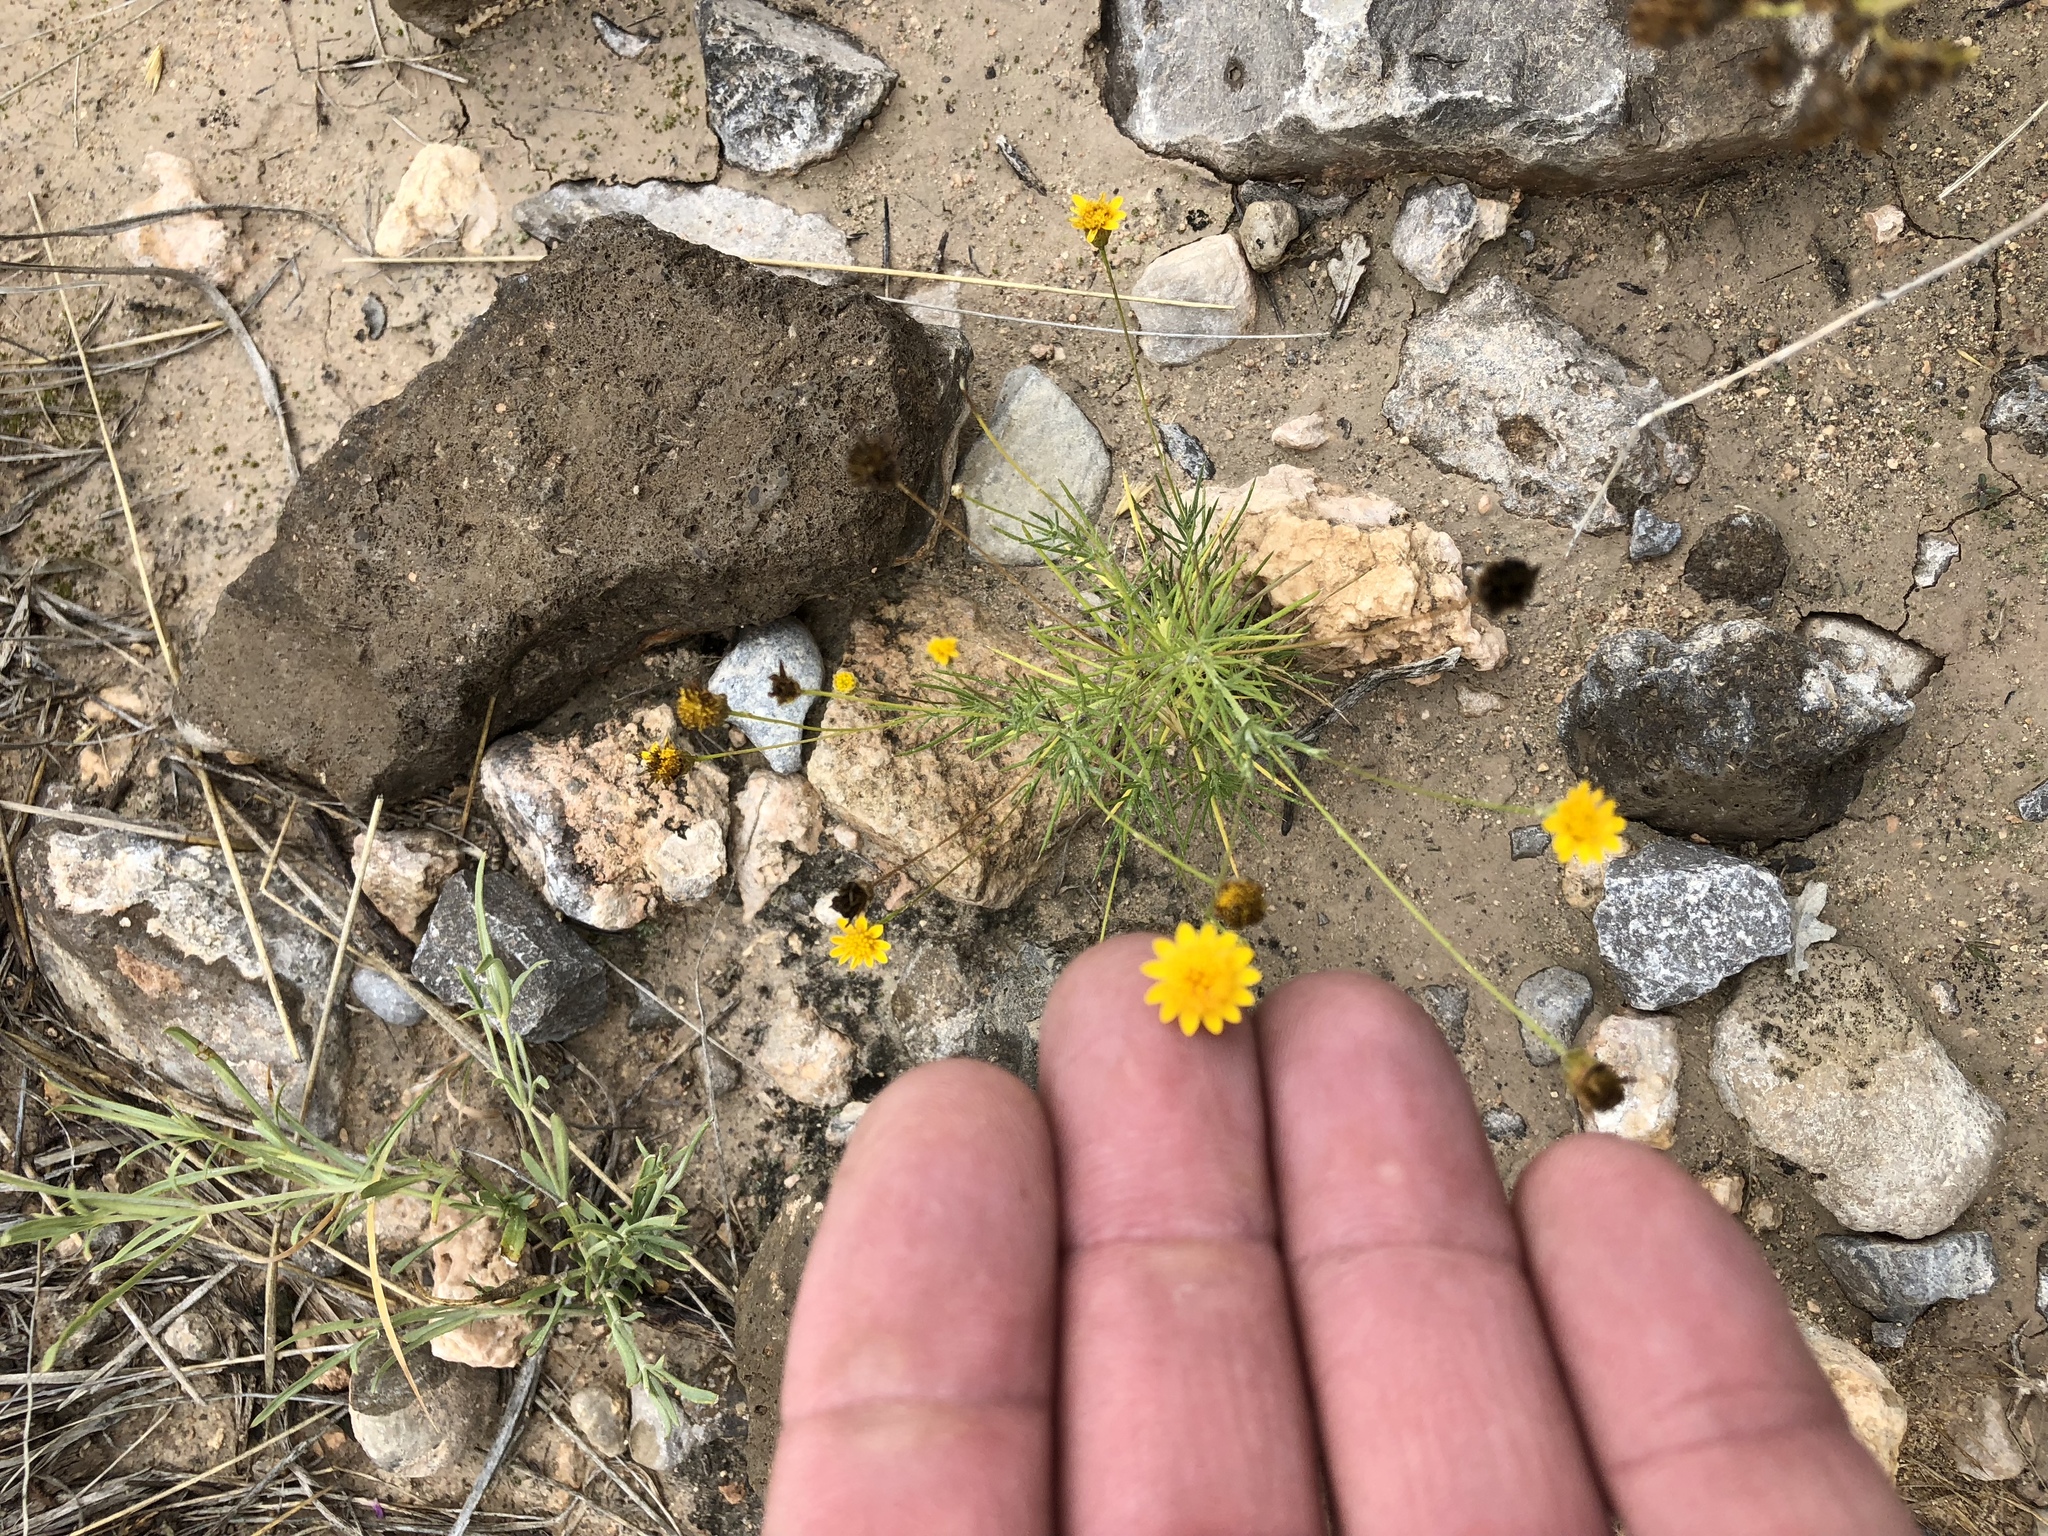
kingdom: Plantae
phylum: Tracheophyta
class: Magnoliopsida
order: Asterales
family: Asteraceae
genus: Thymophylla
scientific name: Thymophylla pentachaeta
